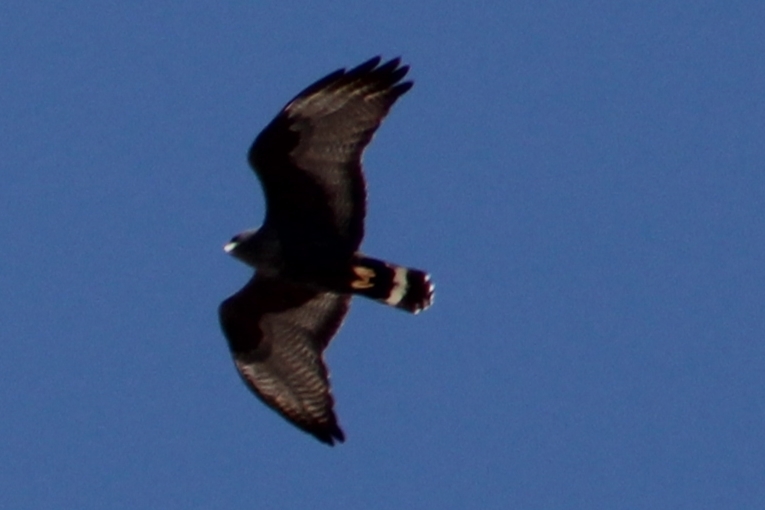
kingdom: Animalia
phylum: Chordata
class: Aves
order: Accipitriformes
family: Accipitridae
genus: Buteo
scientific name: Buteo albonotatus
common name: Zone-tailed hawk
